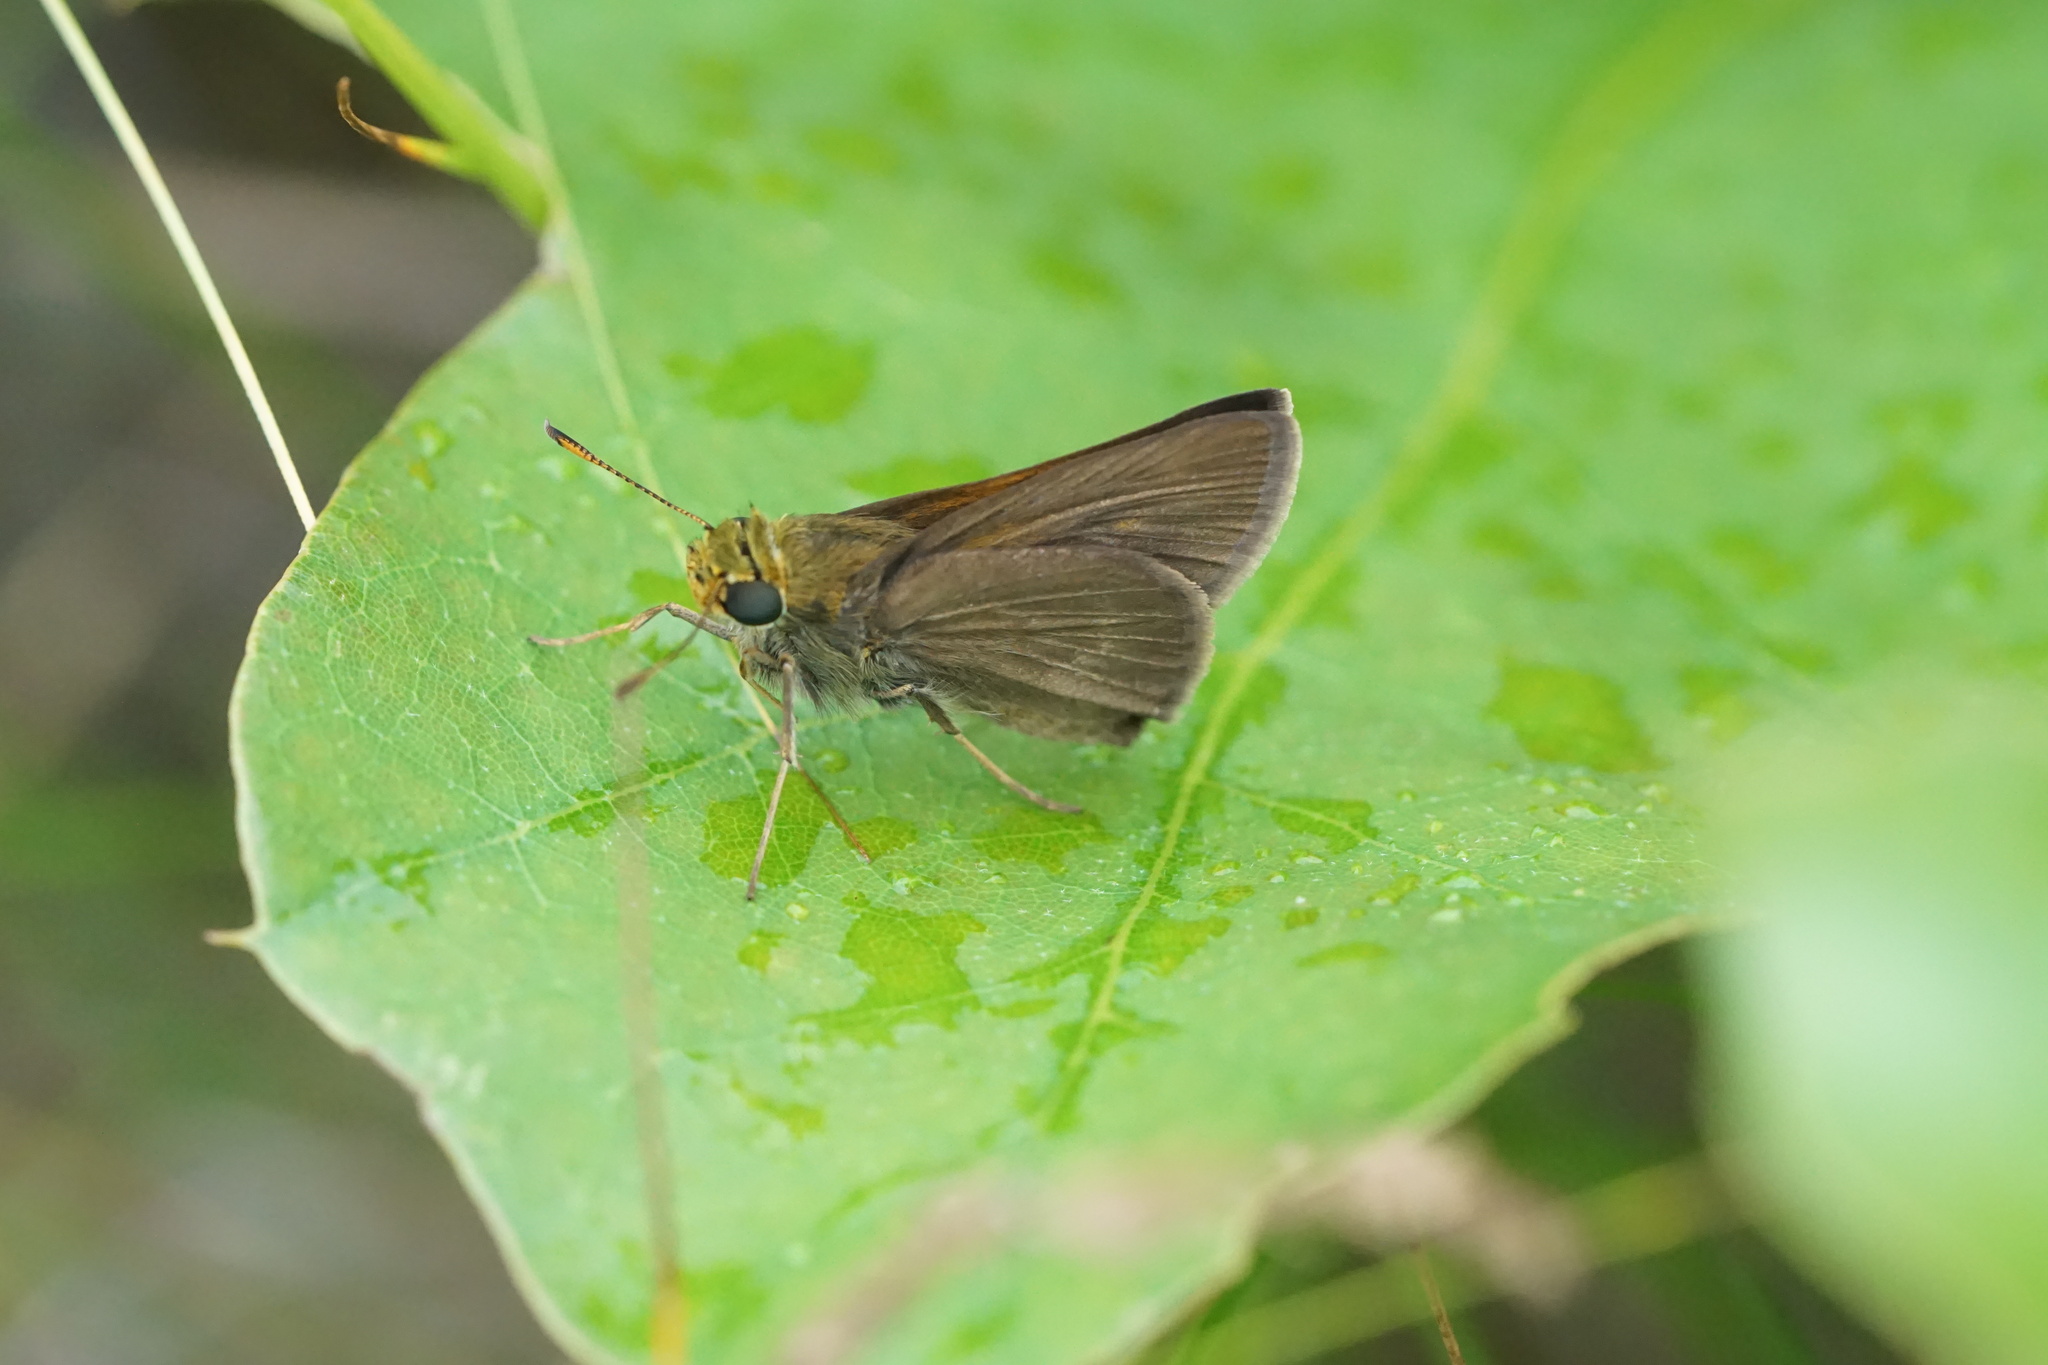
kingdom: Animalia
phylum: Arthropoda
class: Insecta
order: Lepidoptera
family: Hesperiidae
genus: Euphyes
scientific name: Euphyes vestris
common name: Dun skipper
